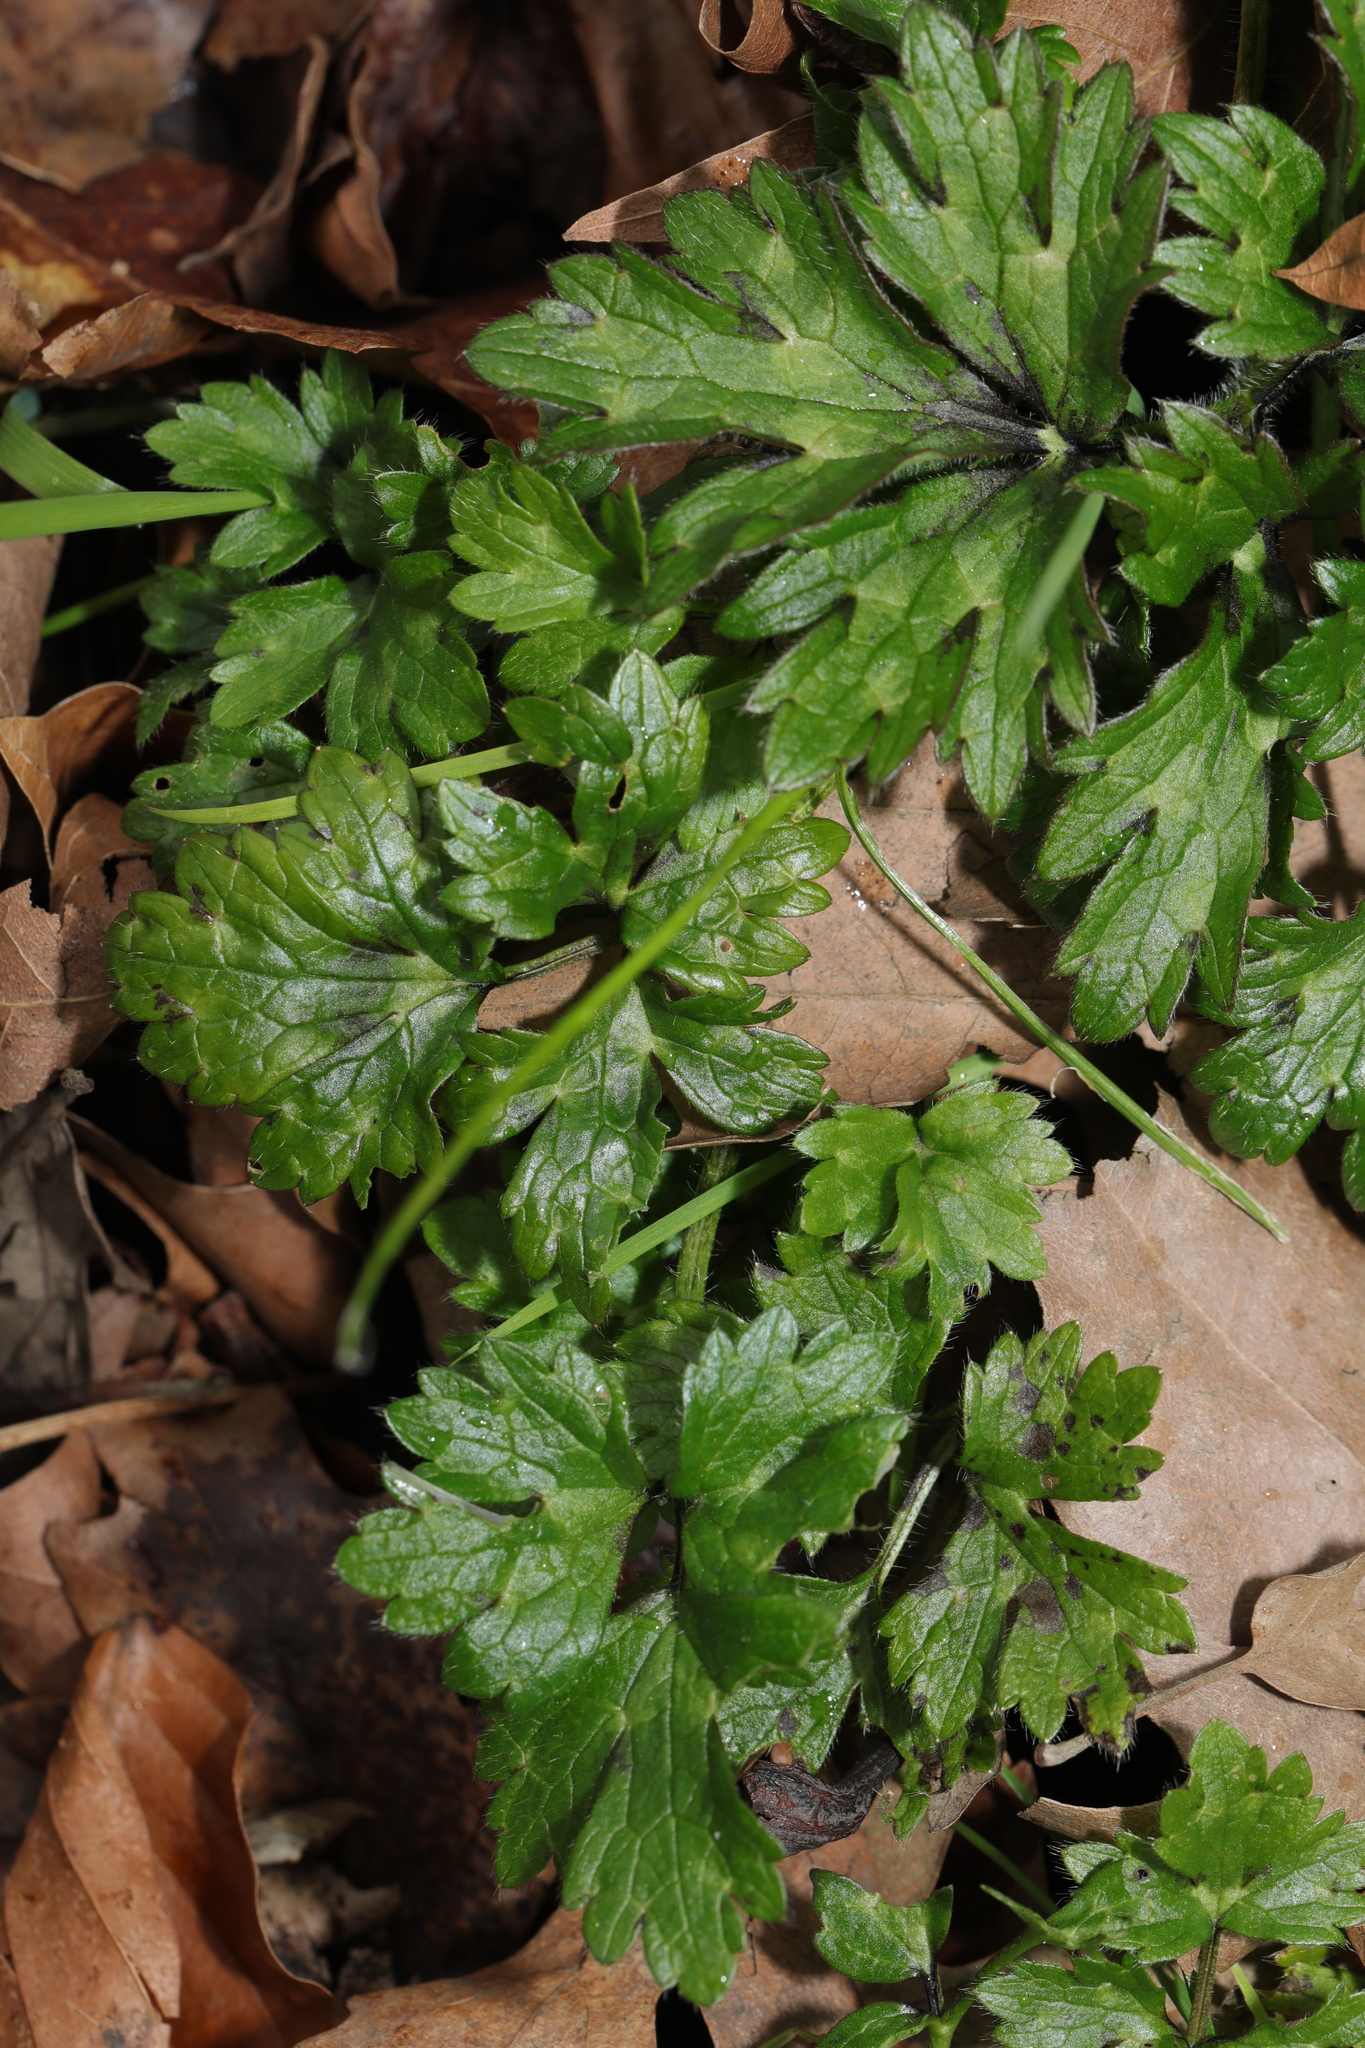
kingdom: Plantae
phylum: Tracheophyta
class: Magnoliopsida
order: Ranunculales
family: Ranunculaceae
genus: Ranunculus
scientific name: Ranunculus repens
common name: Creeping buttercup
